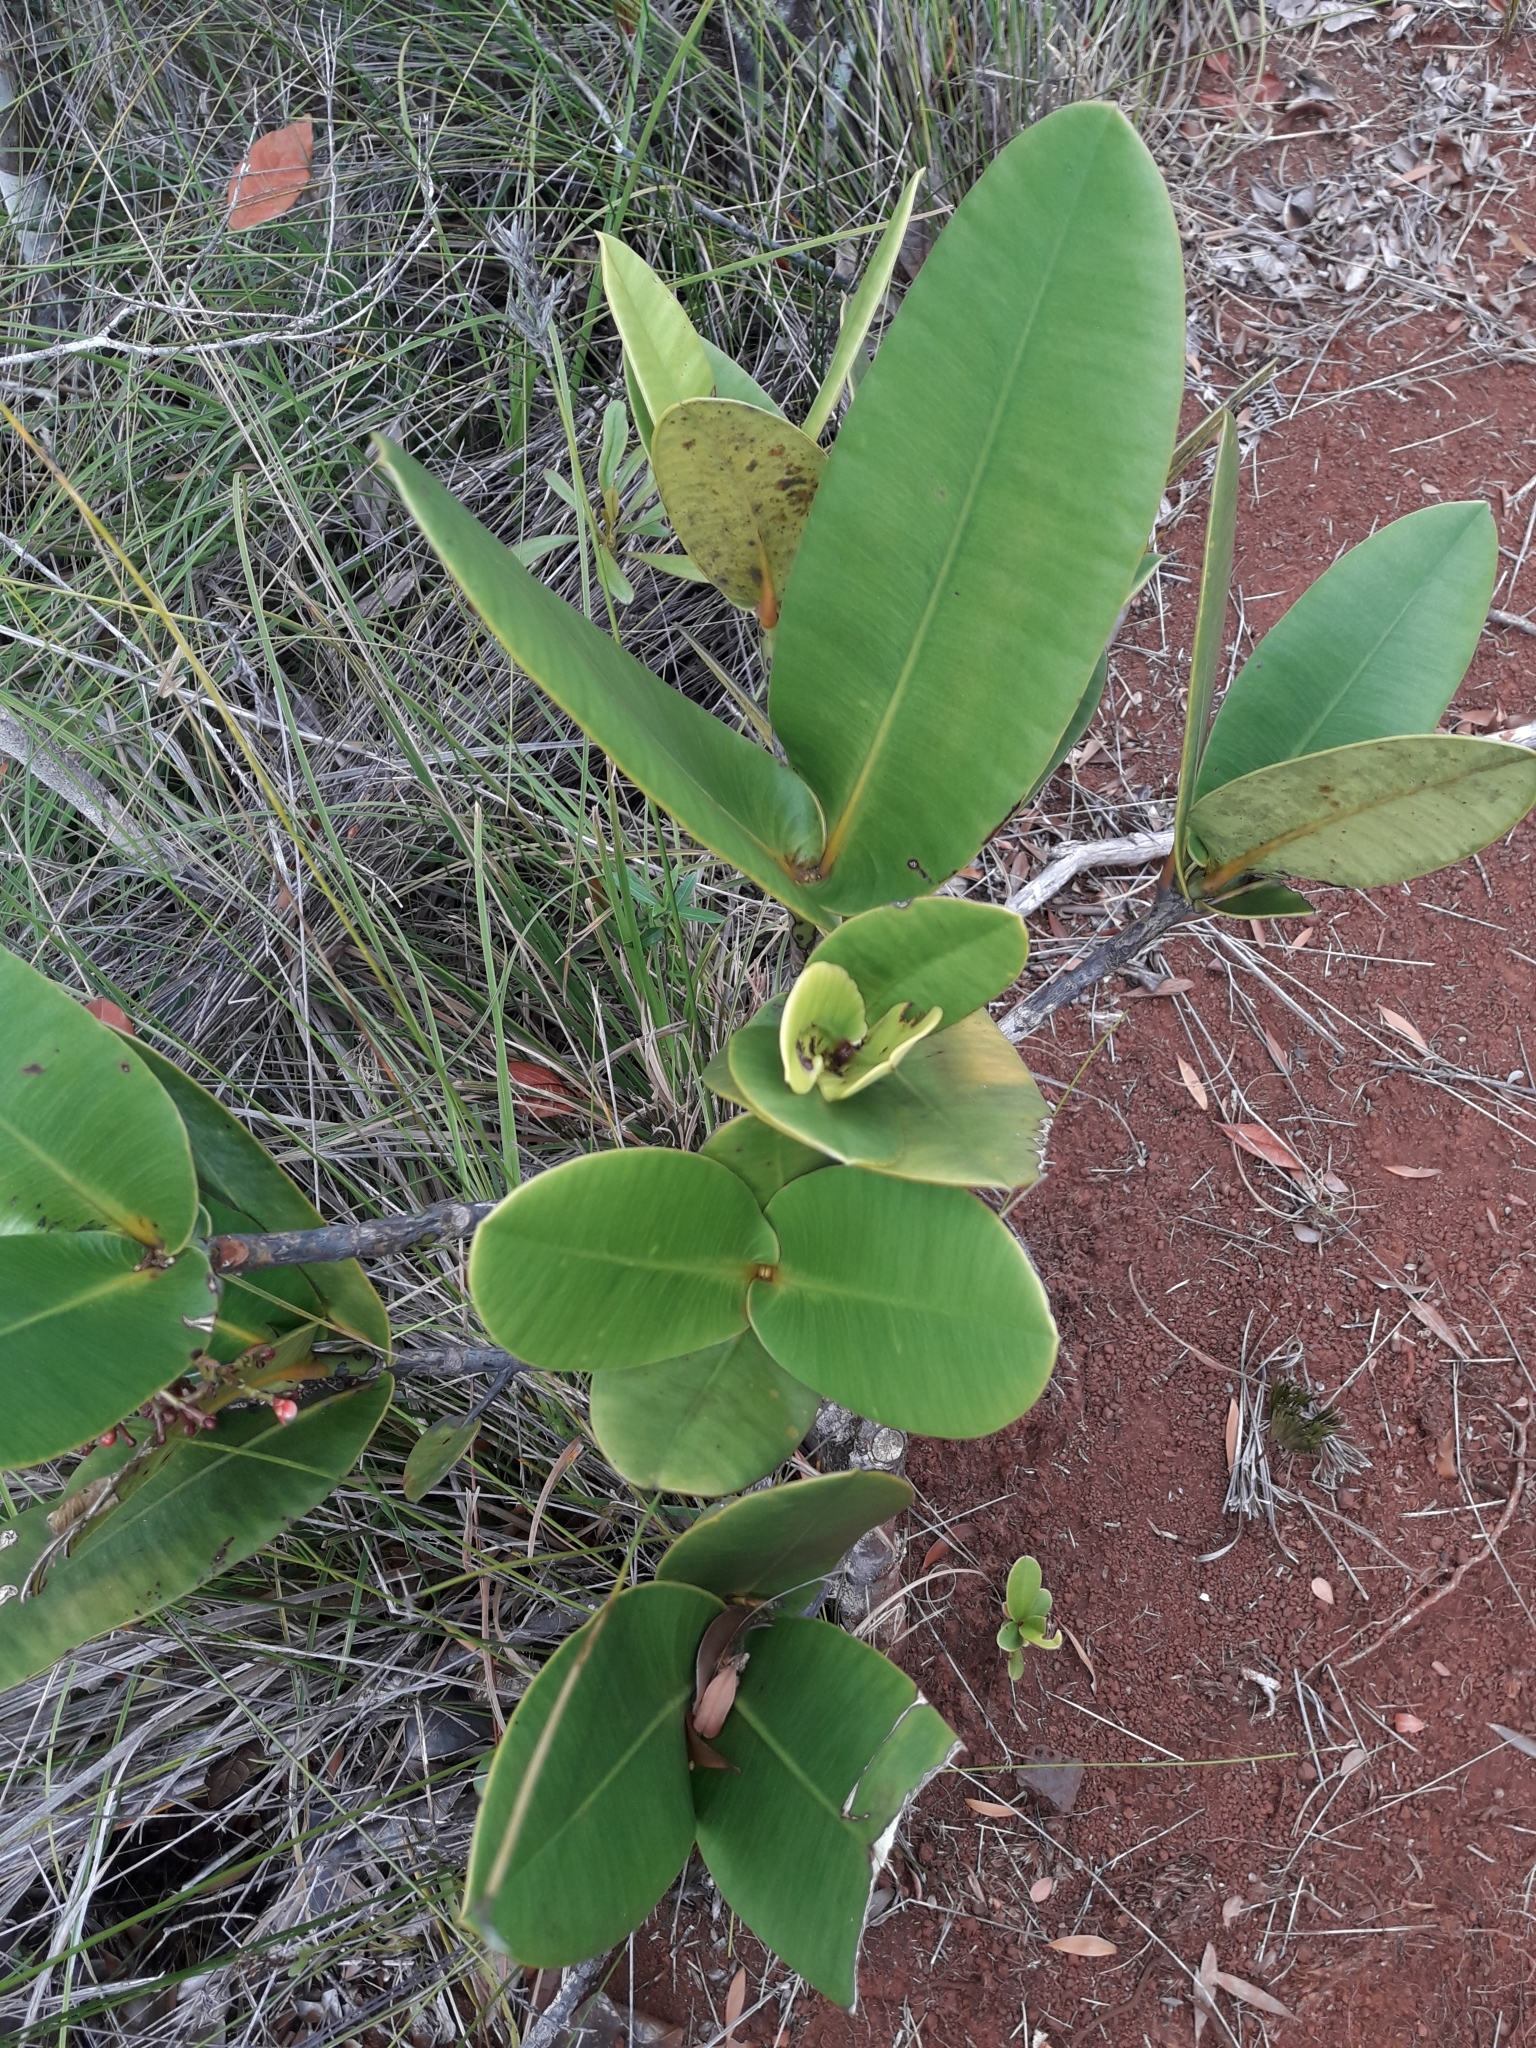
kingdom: Plantae
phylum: Tracheophyta
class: Magnoliopsida
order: Malpighiales
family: Clusiaceae
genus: Garcinia
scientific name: Garcinia amplexicaulis
